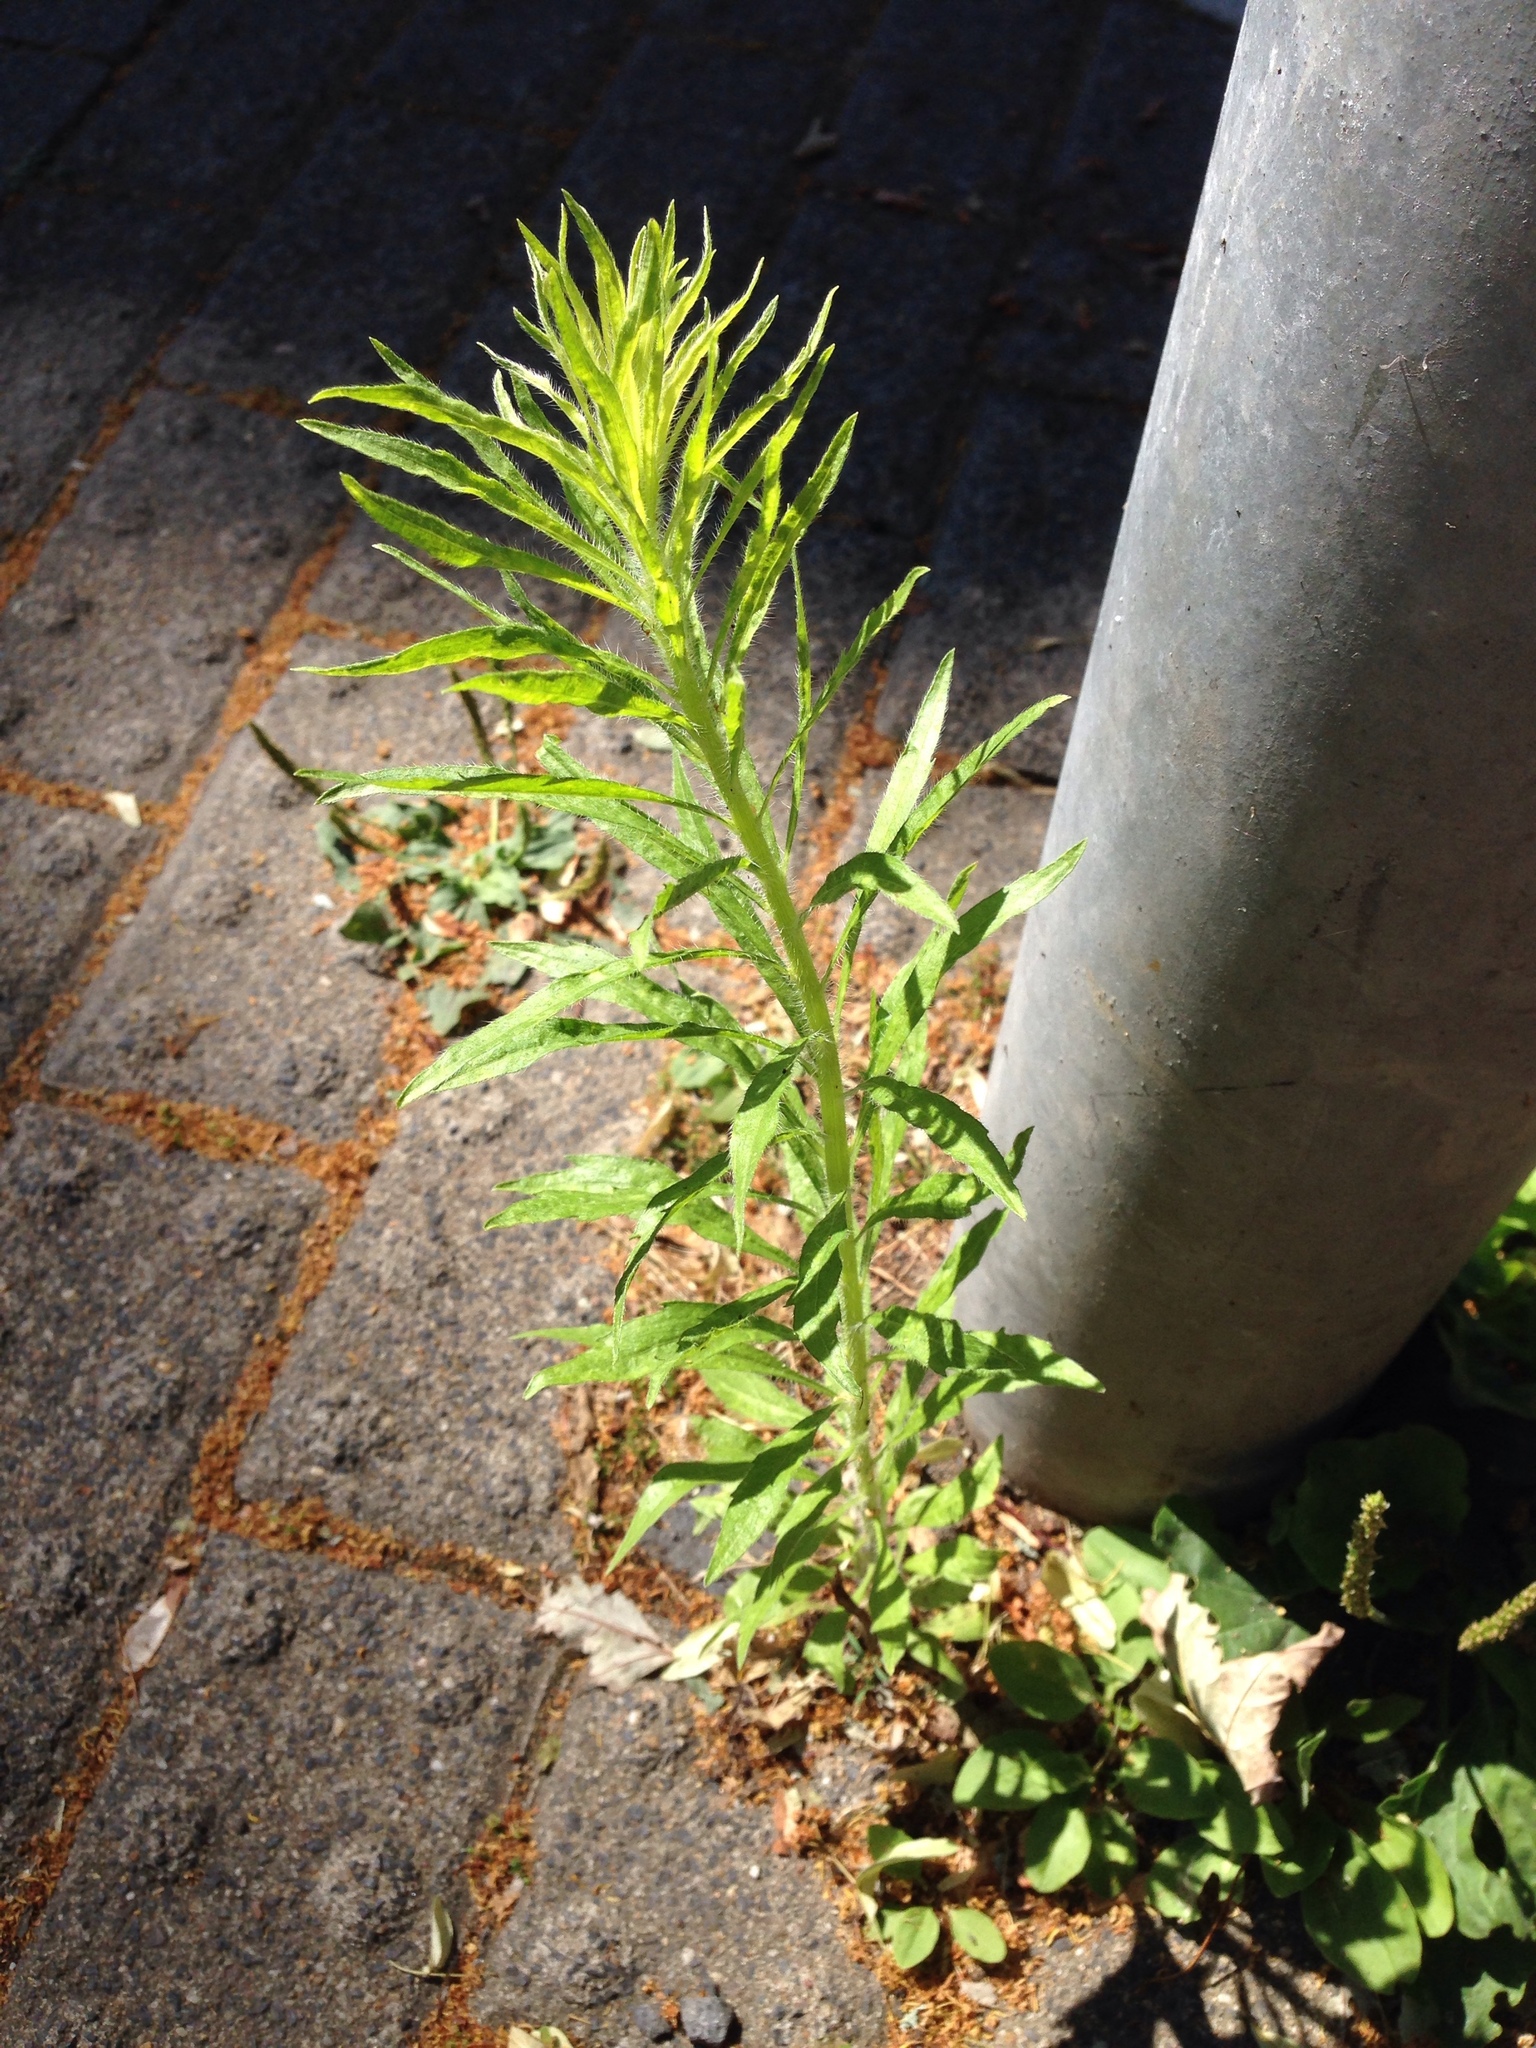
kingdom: Plantae
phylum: Tracheophyta
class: Magnoliopsida
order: Asterales
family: Asteraceae
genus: Erigeron
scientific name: Erigeron canadensis
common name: Canadian fleabane
